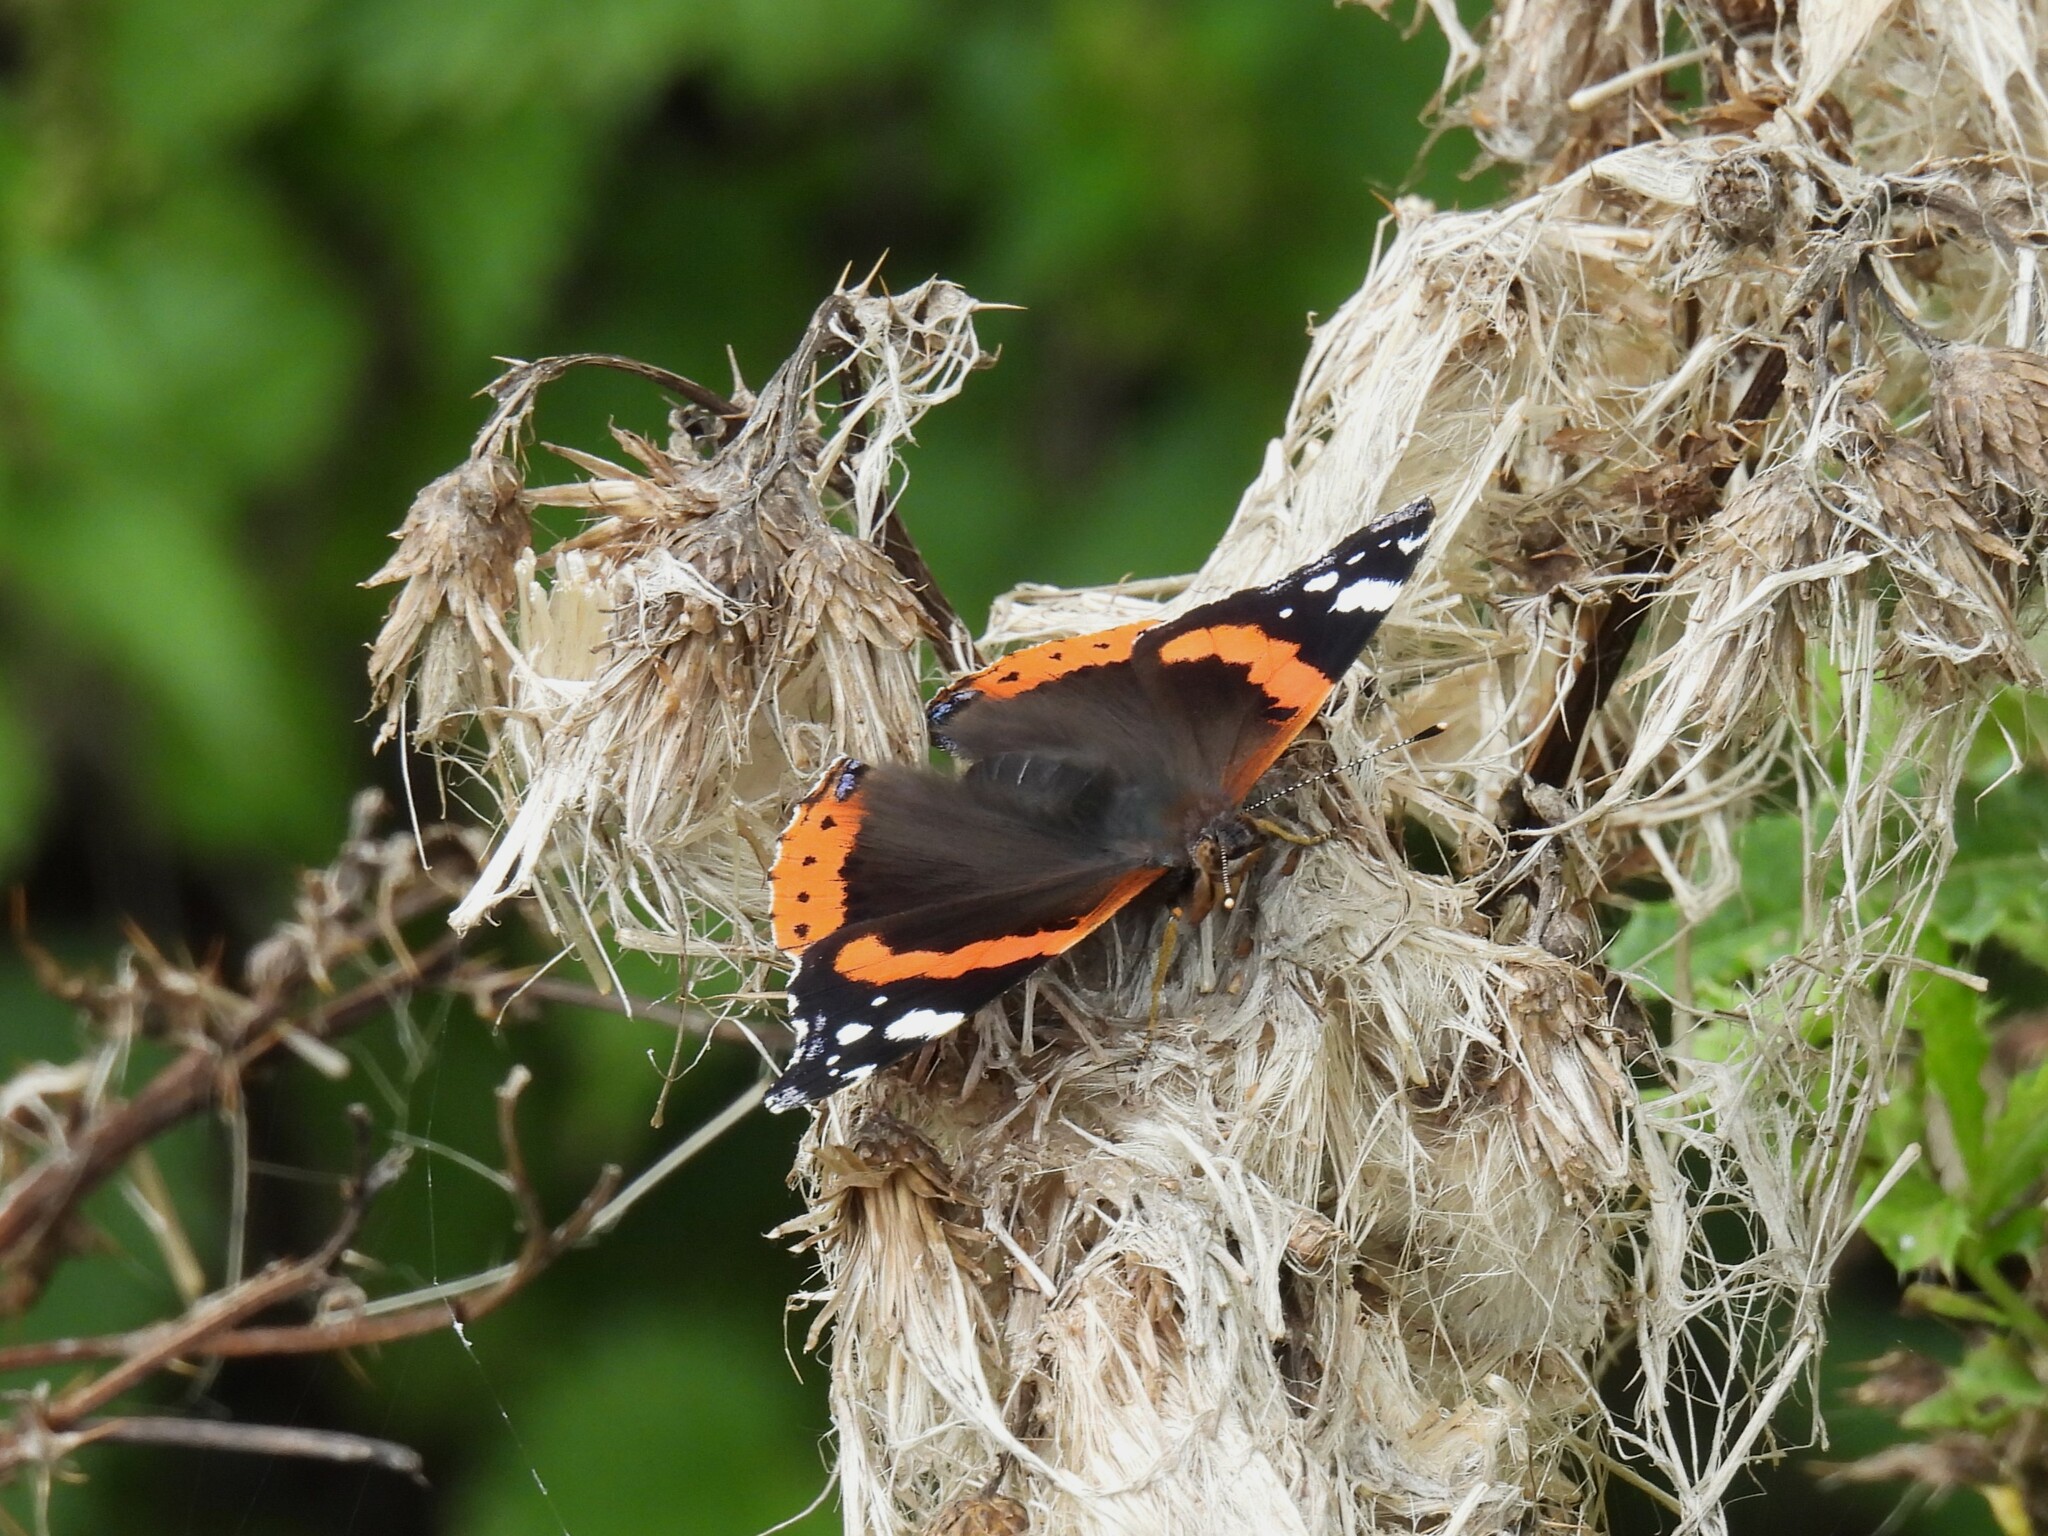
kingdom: Animalia
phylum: Arthropoda
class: Insecta
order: Lepidoptera
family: Nymphalidae
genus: Vanessa
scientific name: Vanessa atalanta
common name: Red admiral
